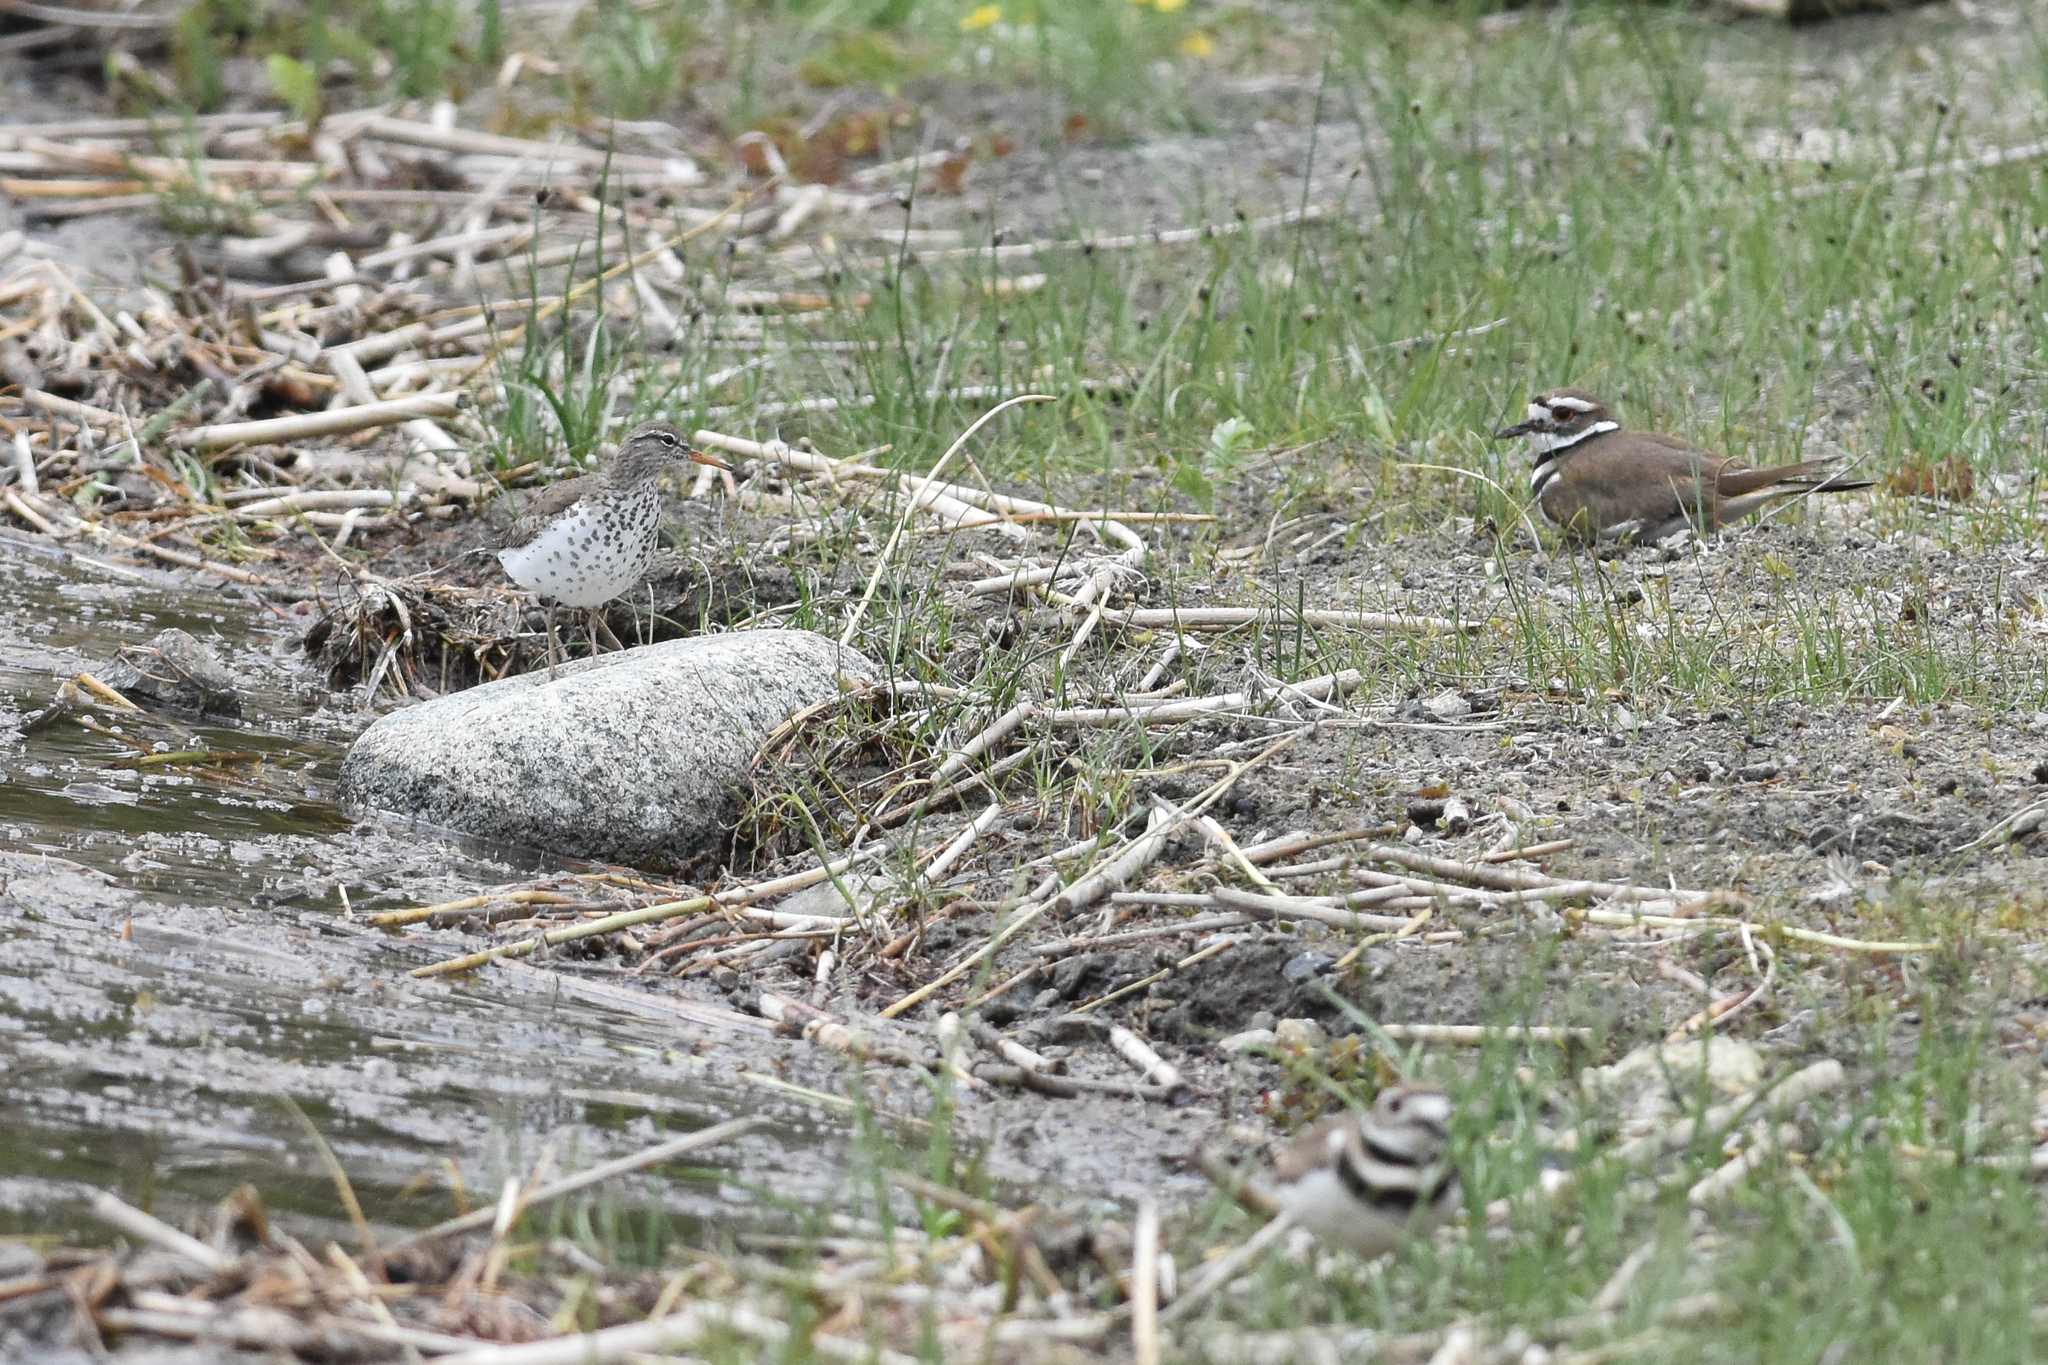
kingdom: Animalia
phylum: Chordata
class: Aves
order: Charadriiformes
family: Scolopacidae
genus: Actitis
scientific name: Actitis macularius
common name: Spotted sandpiper
